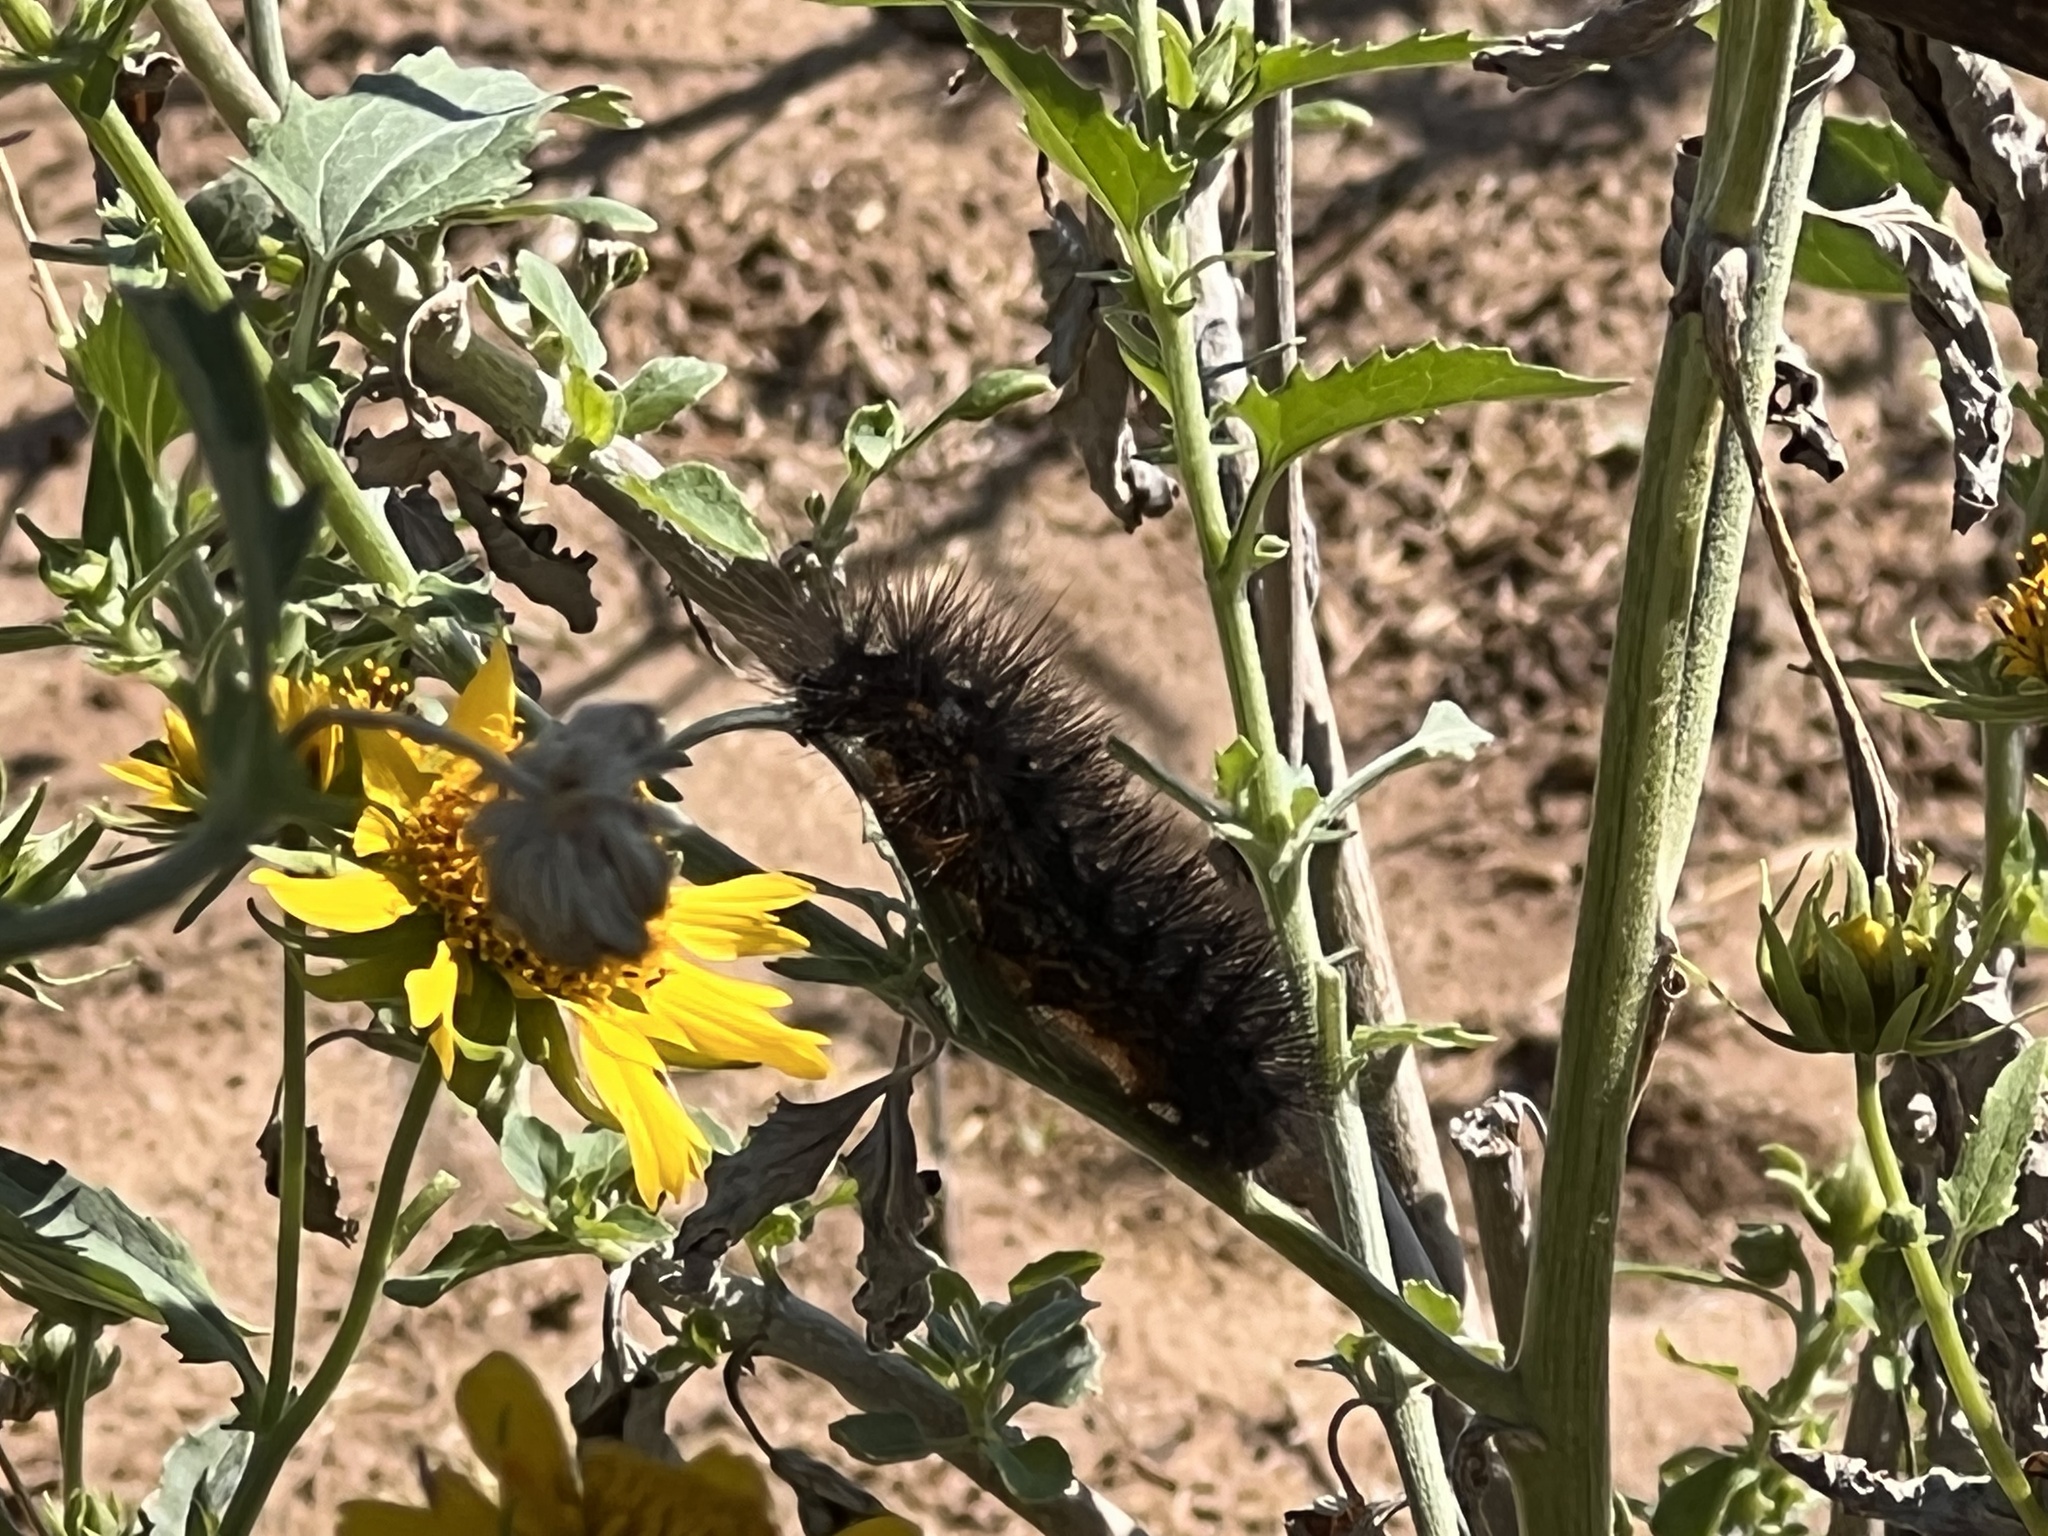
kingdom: Animalia
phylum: Arthropoda
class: Insecta
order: Lepidoptera
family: Erebidae
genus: Estigmene
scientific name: Estigmene acrea
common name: Salt marsh moth
